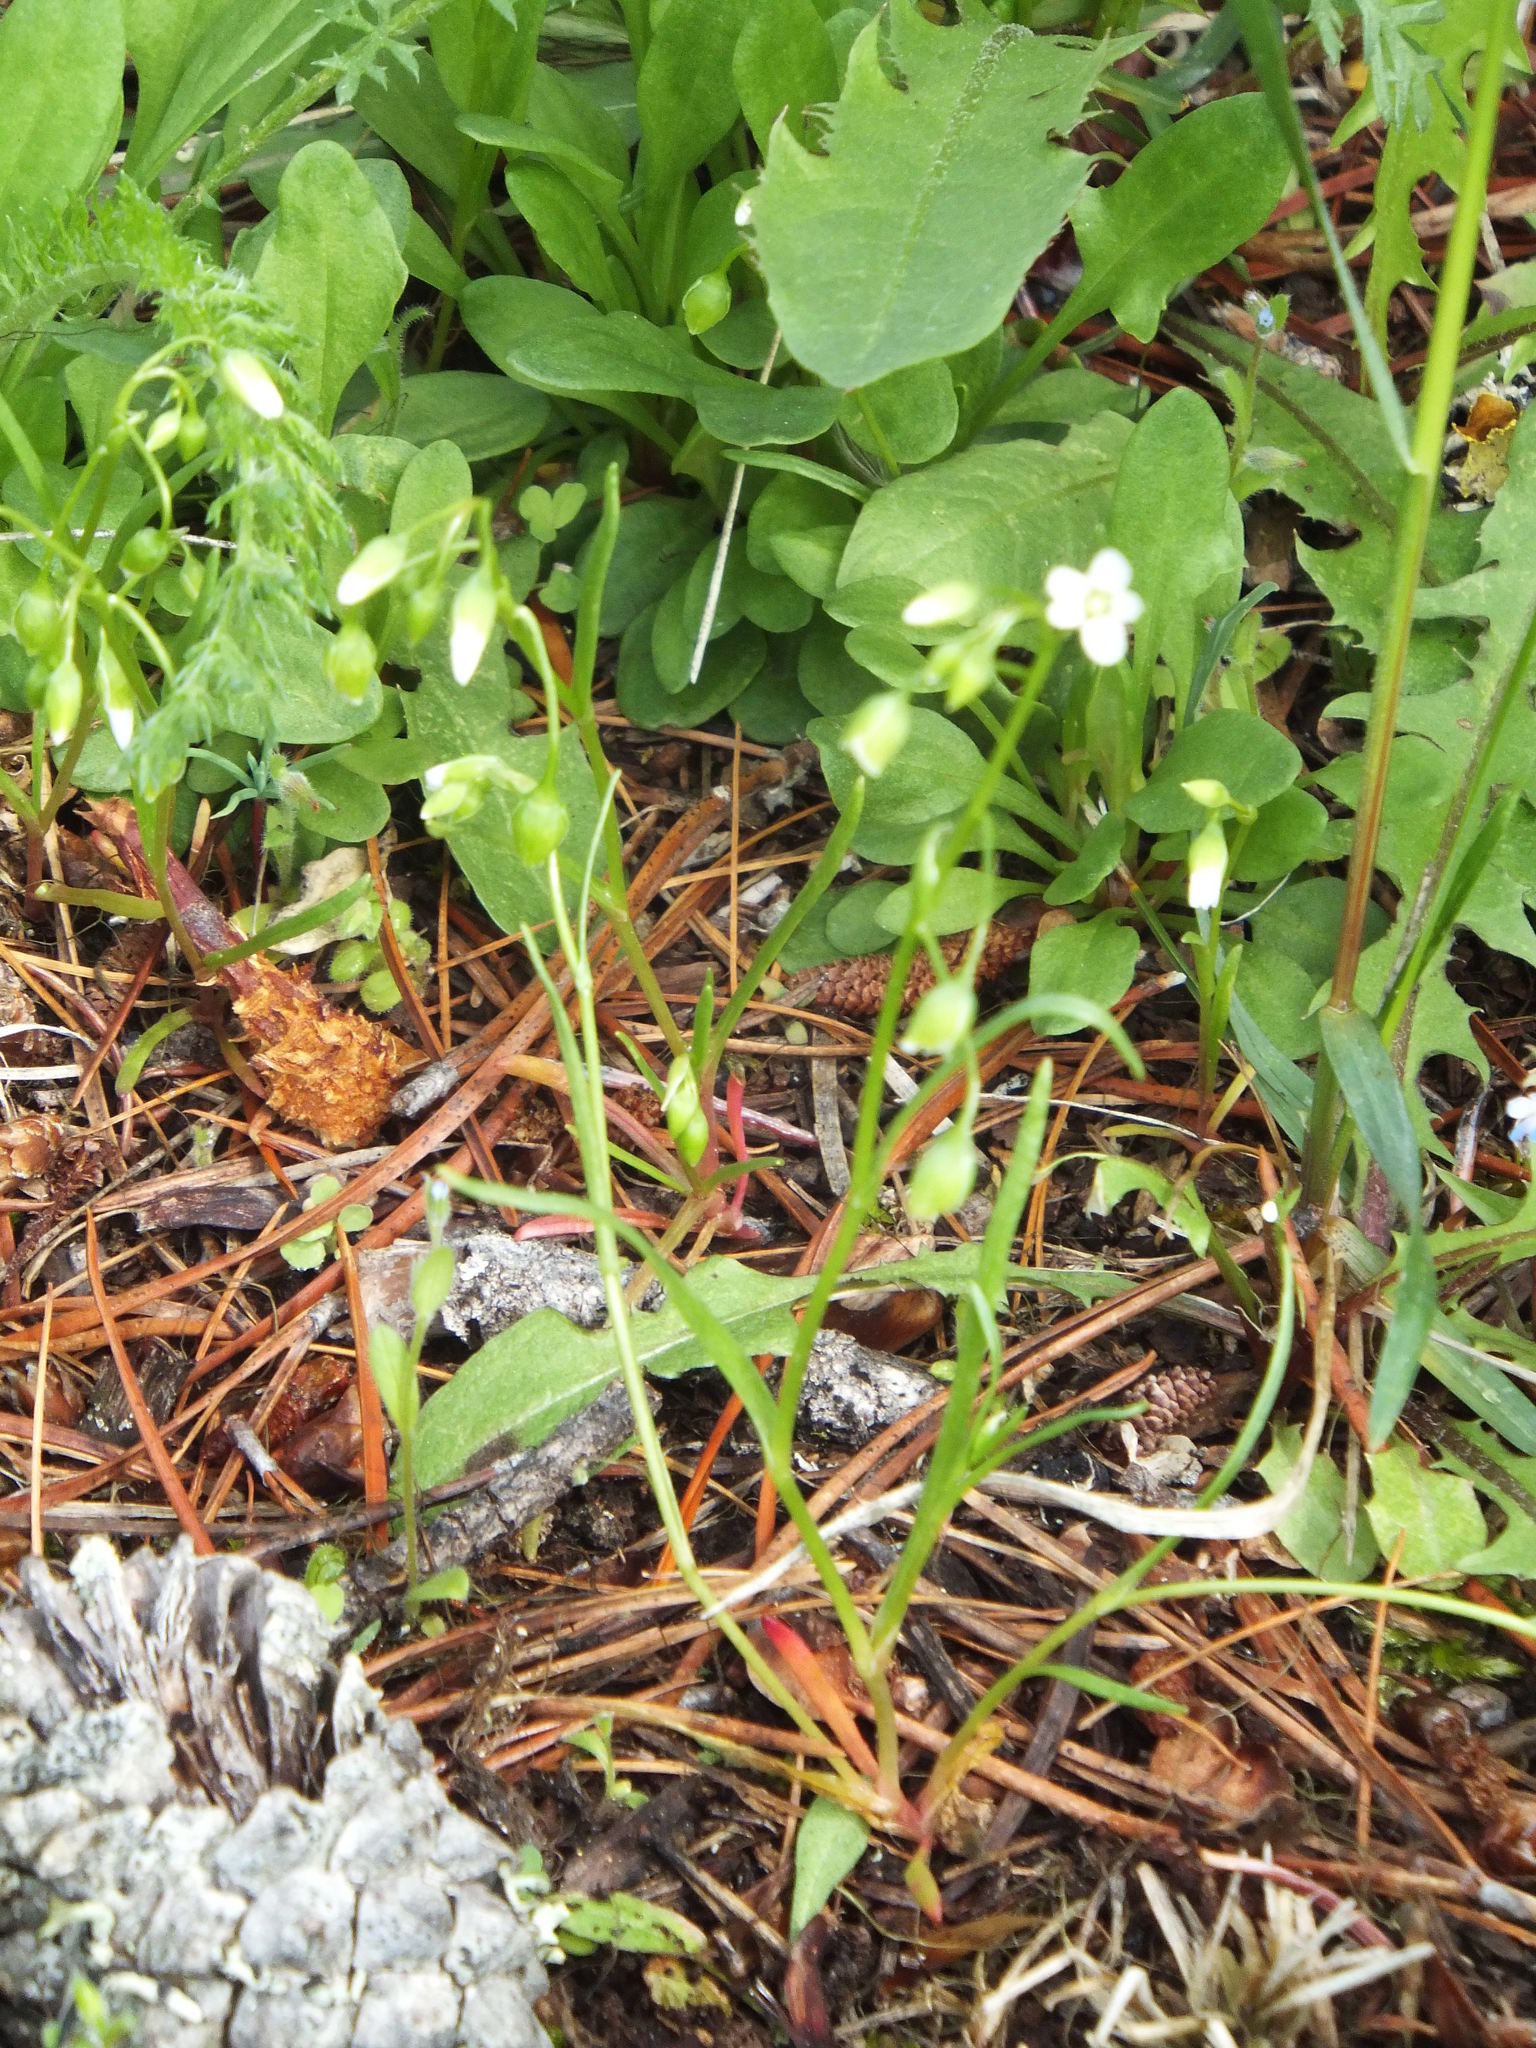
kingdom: Plantae
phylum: Tracheophyta
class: Magnoliopsida
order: Caryophyllales
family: Montiaceae
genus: Montia
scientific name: Montia linearis
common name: Narrow-leaf montia
